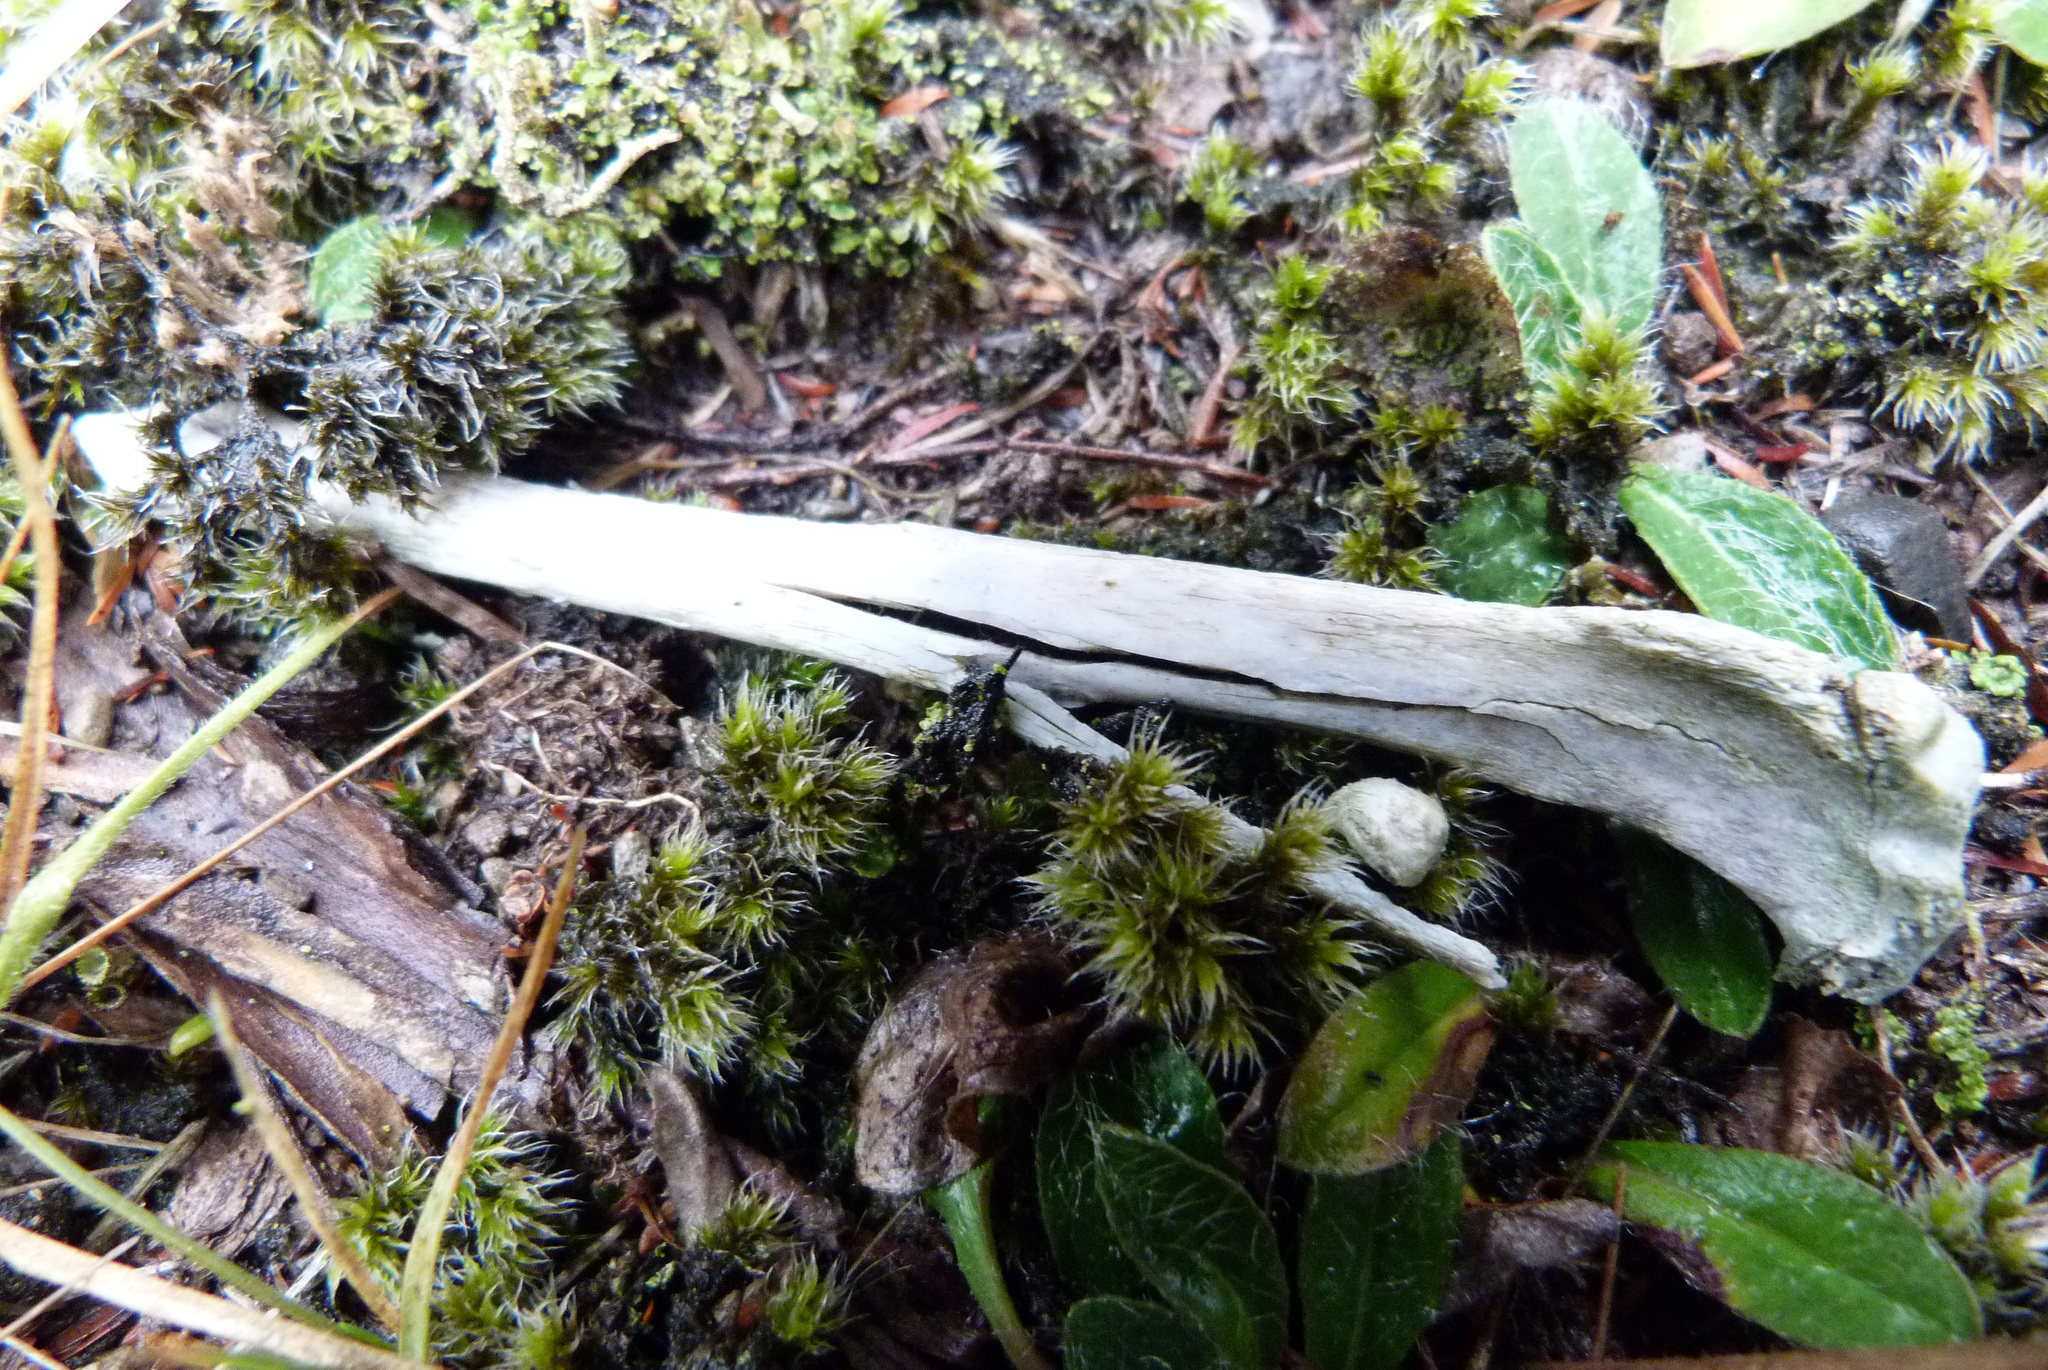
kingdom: Animalia
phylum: Chordata
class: Mammalia
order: Lagomorpha
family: Leporidae
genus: Oryctolagus
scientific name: Oryctolagus cuniculus
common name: European rabbit
